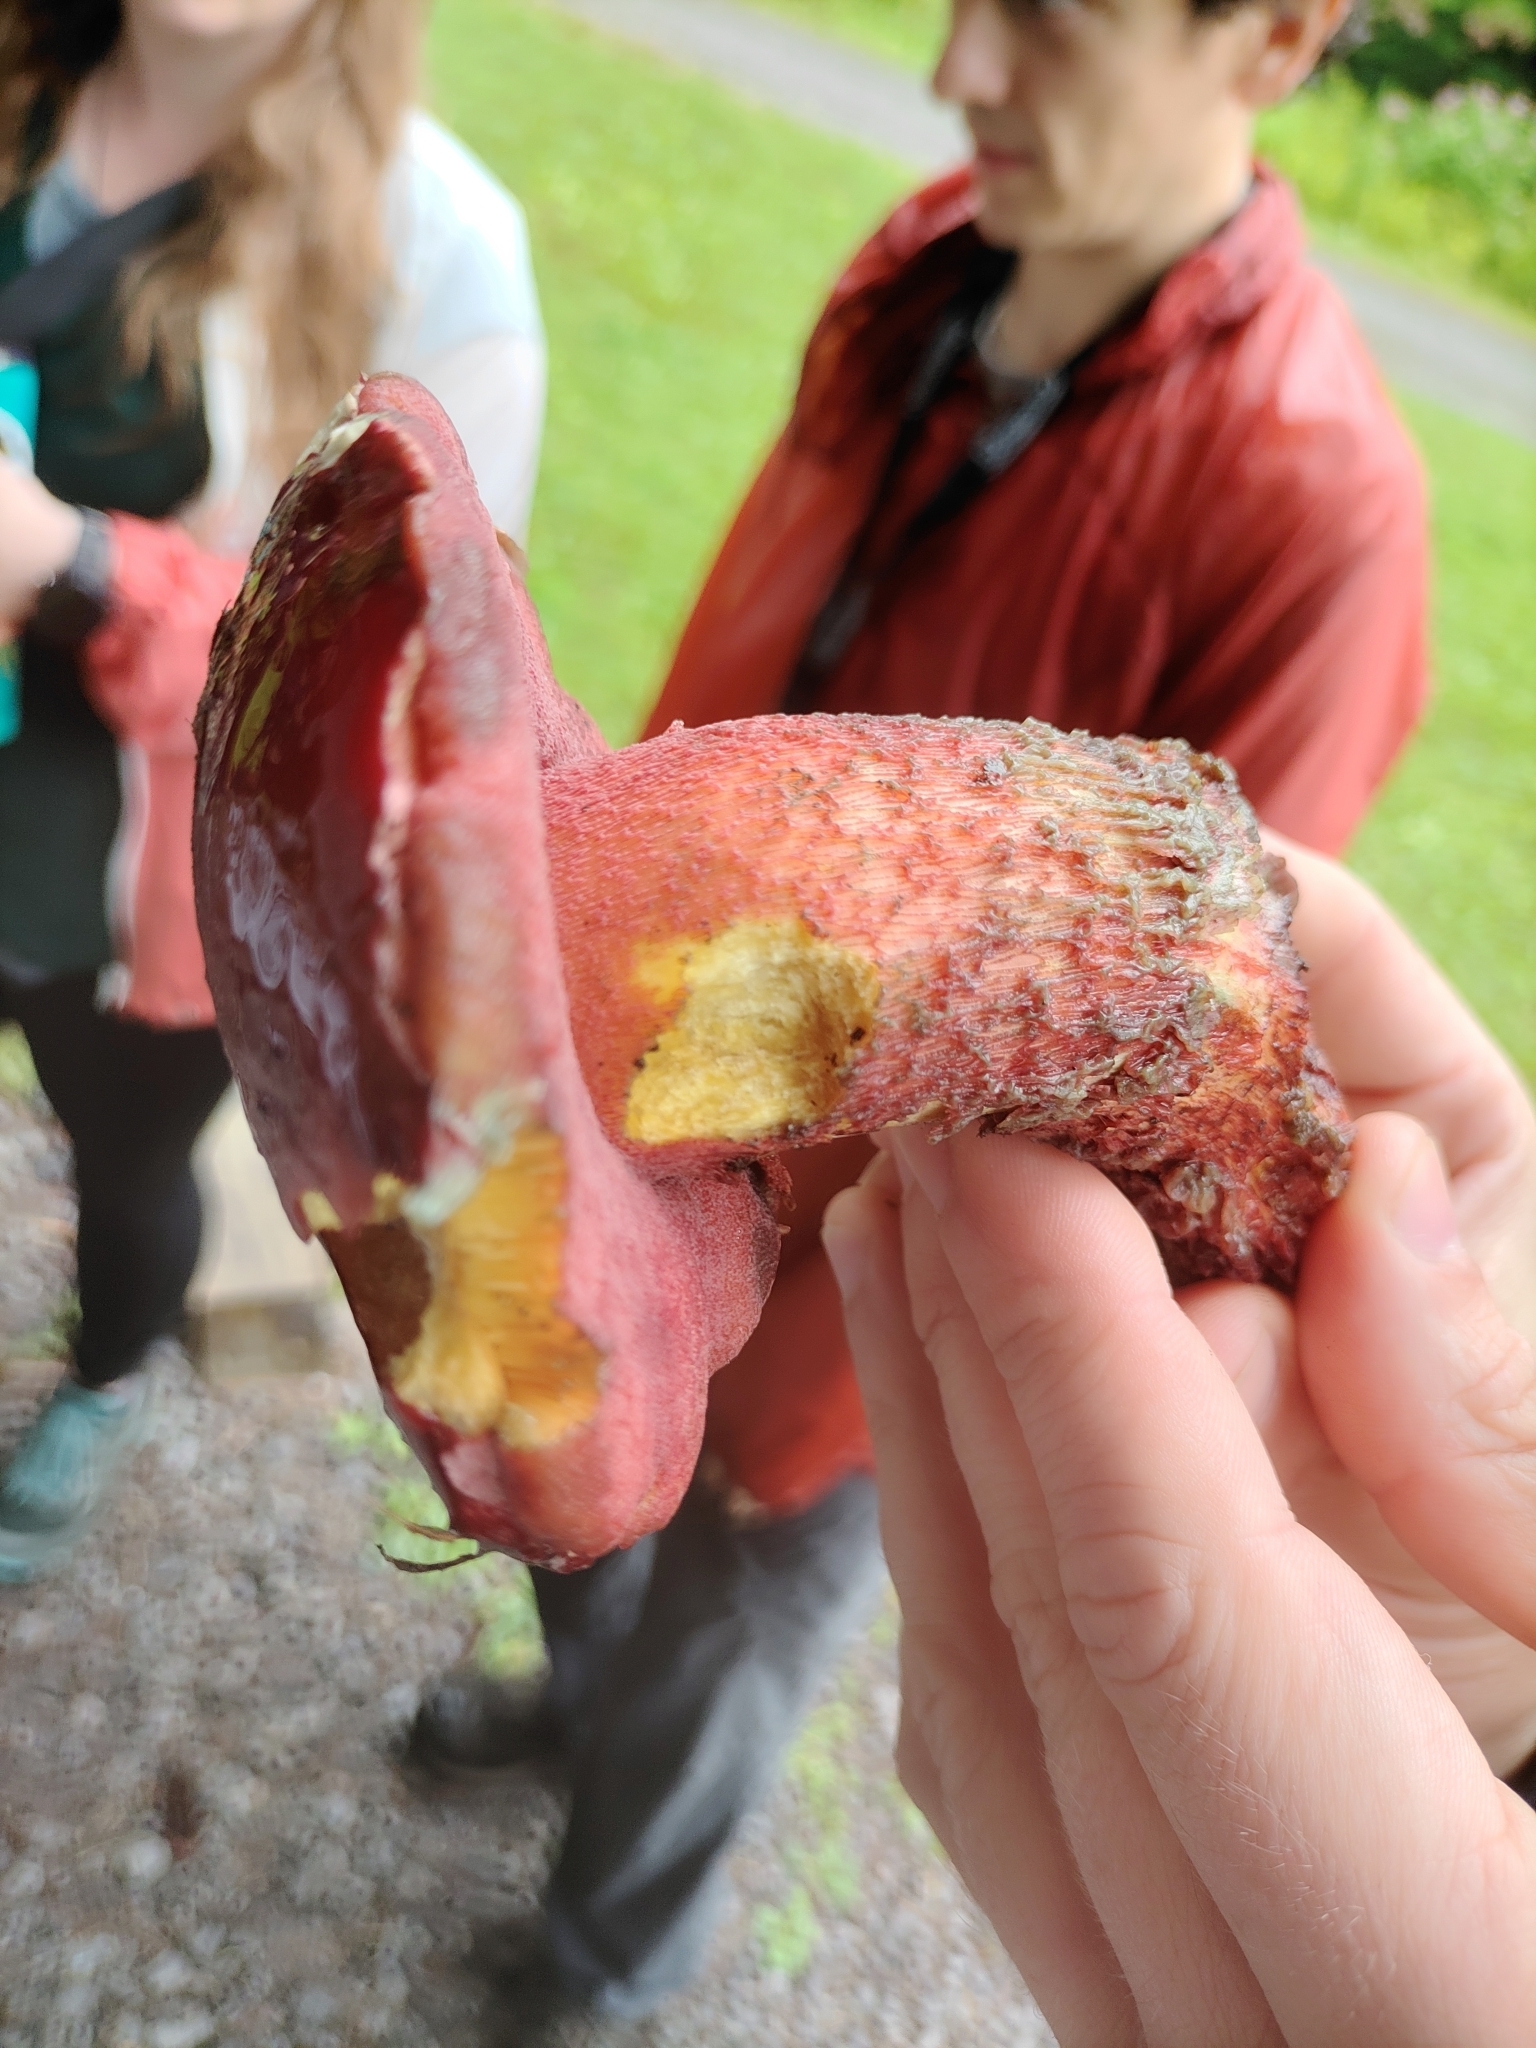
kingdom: Fungi
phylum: Basidiomycota
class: Agaricomycetes
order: Boletales
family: Boletaceae
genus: Butyriboletus
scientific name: Butyriboletus frostii
